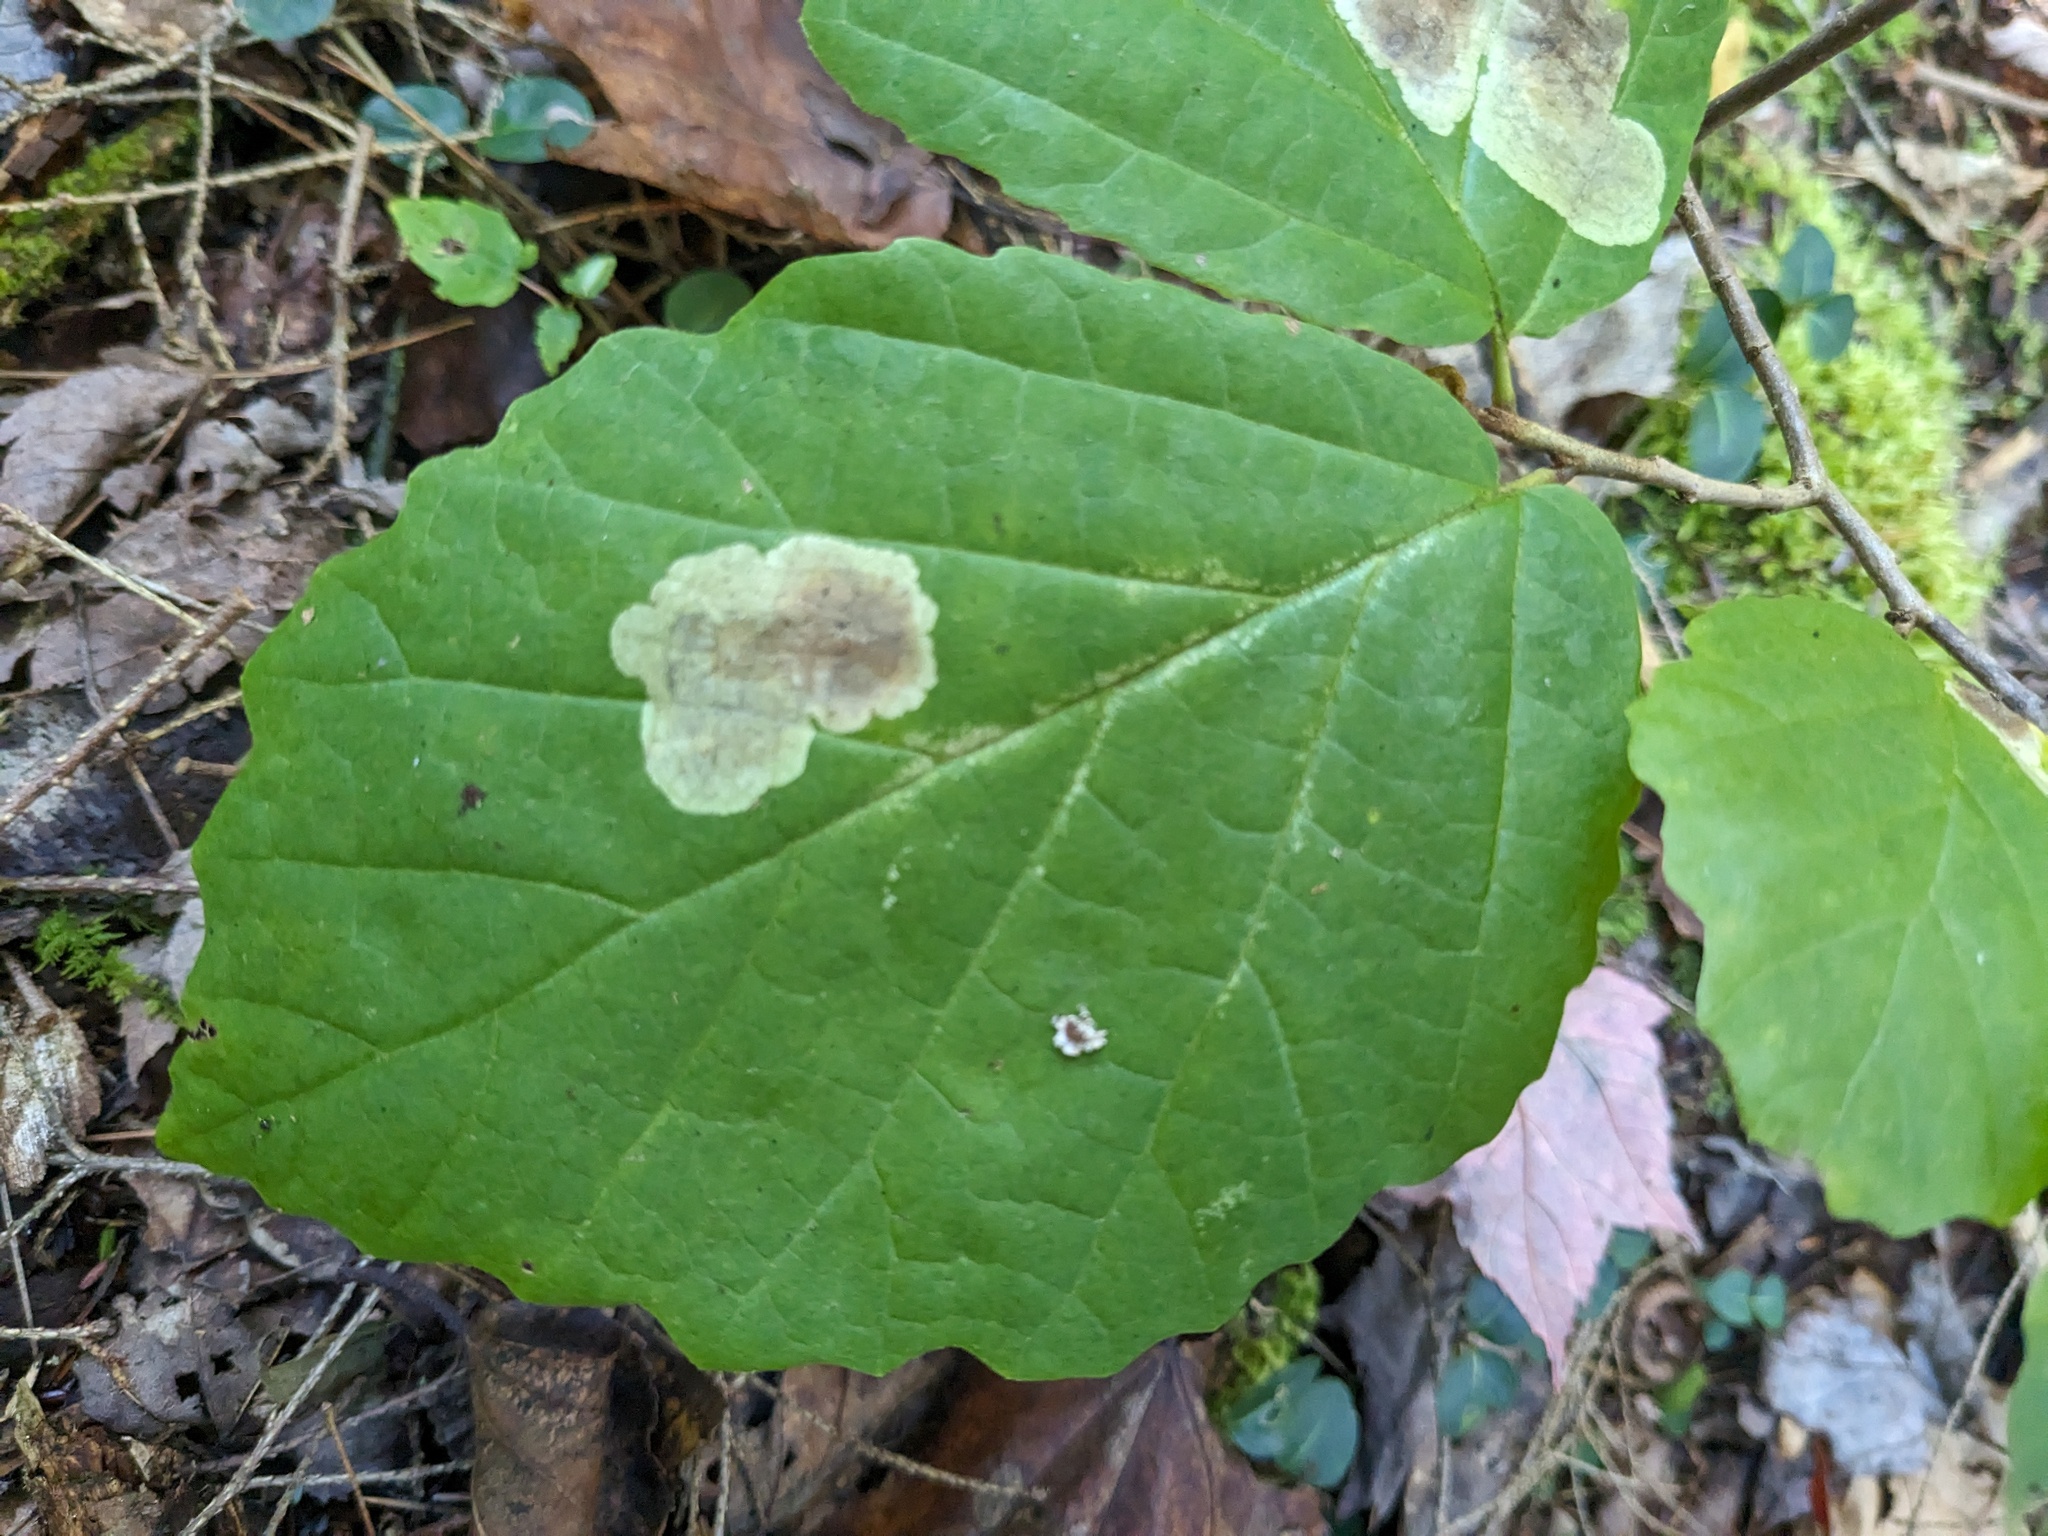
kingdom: Animalia
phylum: Arthropoda
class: Insecta
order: Lepidoptera
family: Gracillariidae
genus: Cameraria
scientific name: Cameraria hamameliella
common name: Witchhazel leafminer
